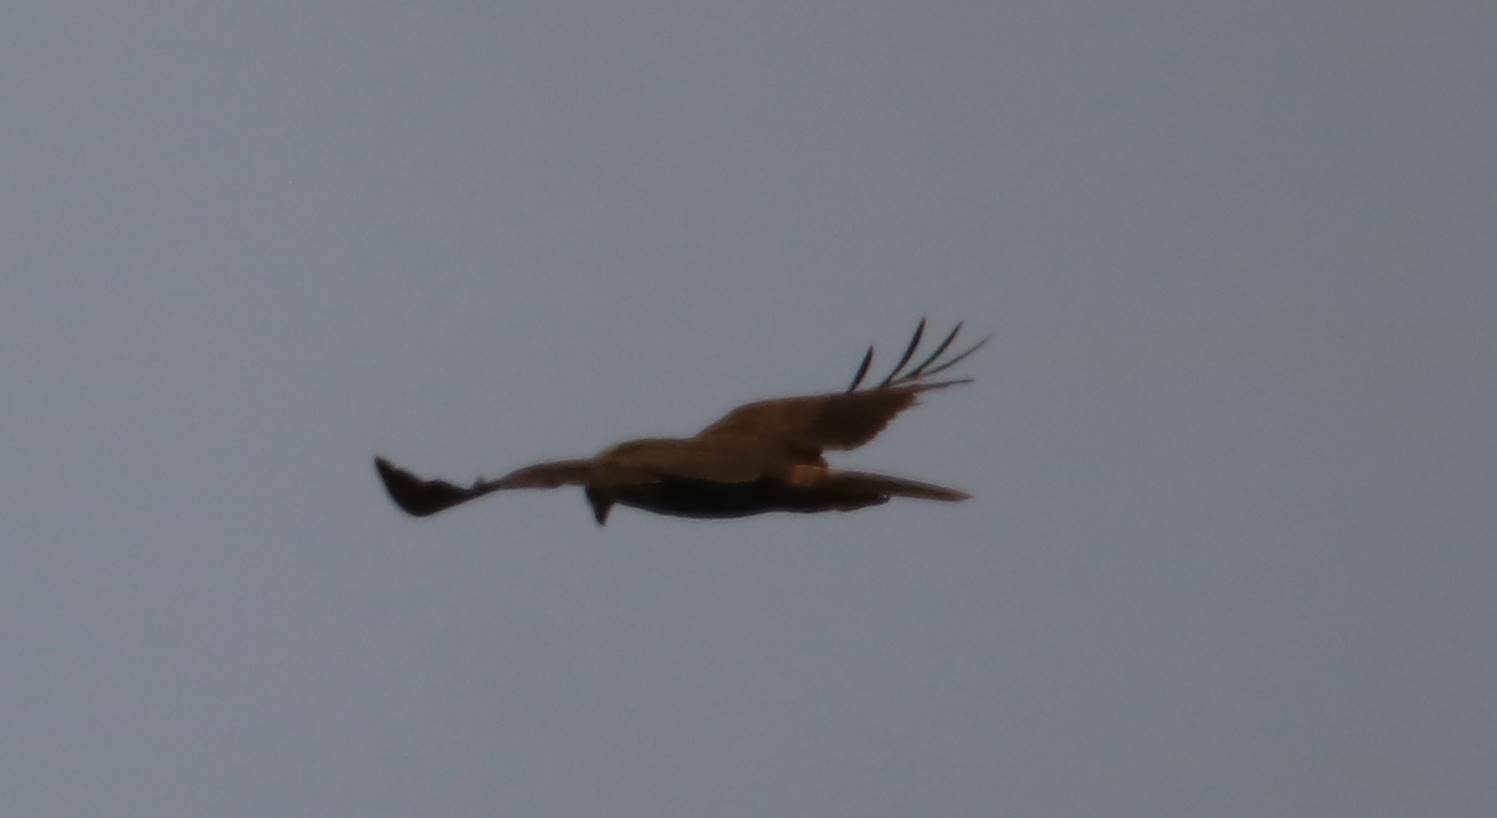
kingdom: Animalia
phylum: Chordata
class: Aves
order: Accipitriformes
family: Accipitridae
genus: Circus
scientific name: Circus aeruginosus
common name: Western marsh harrier
